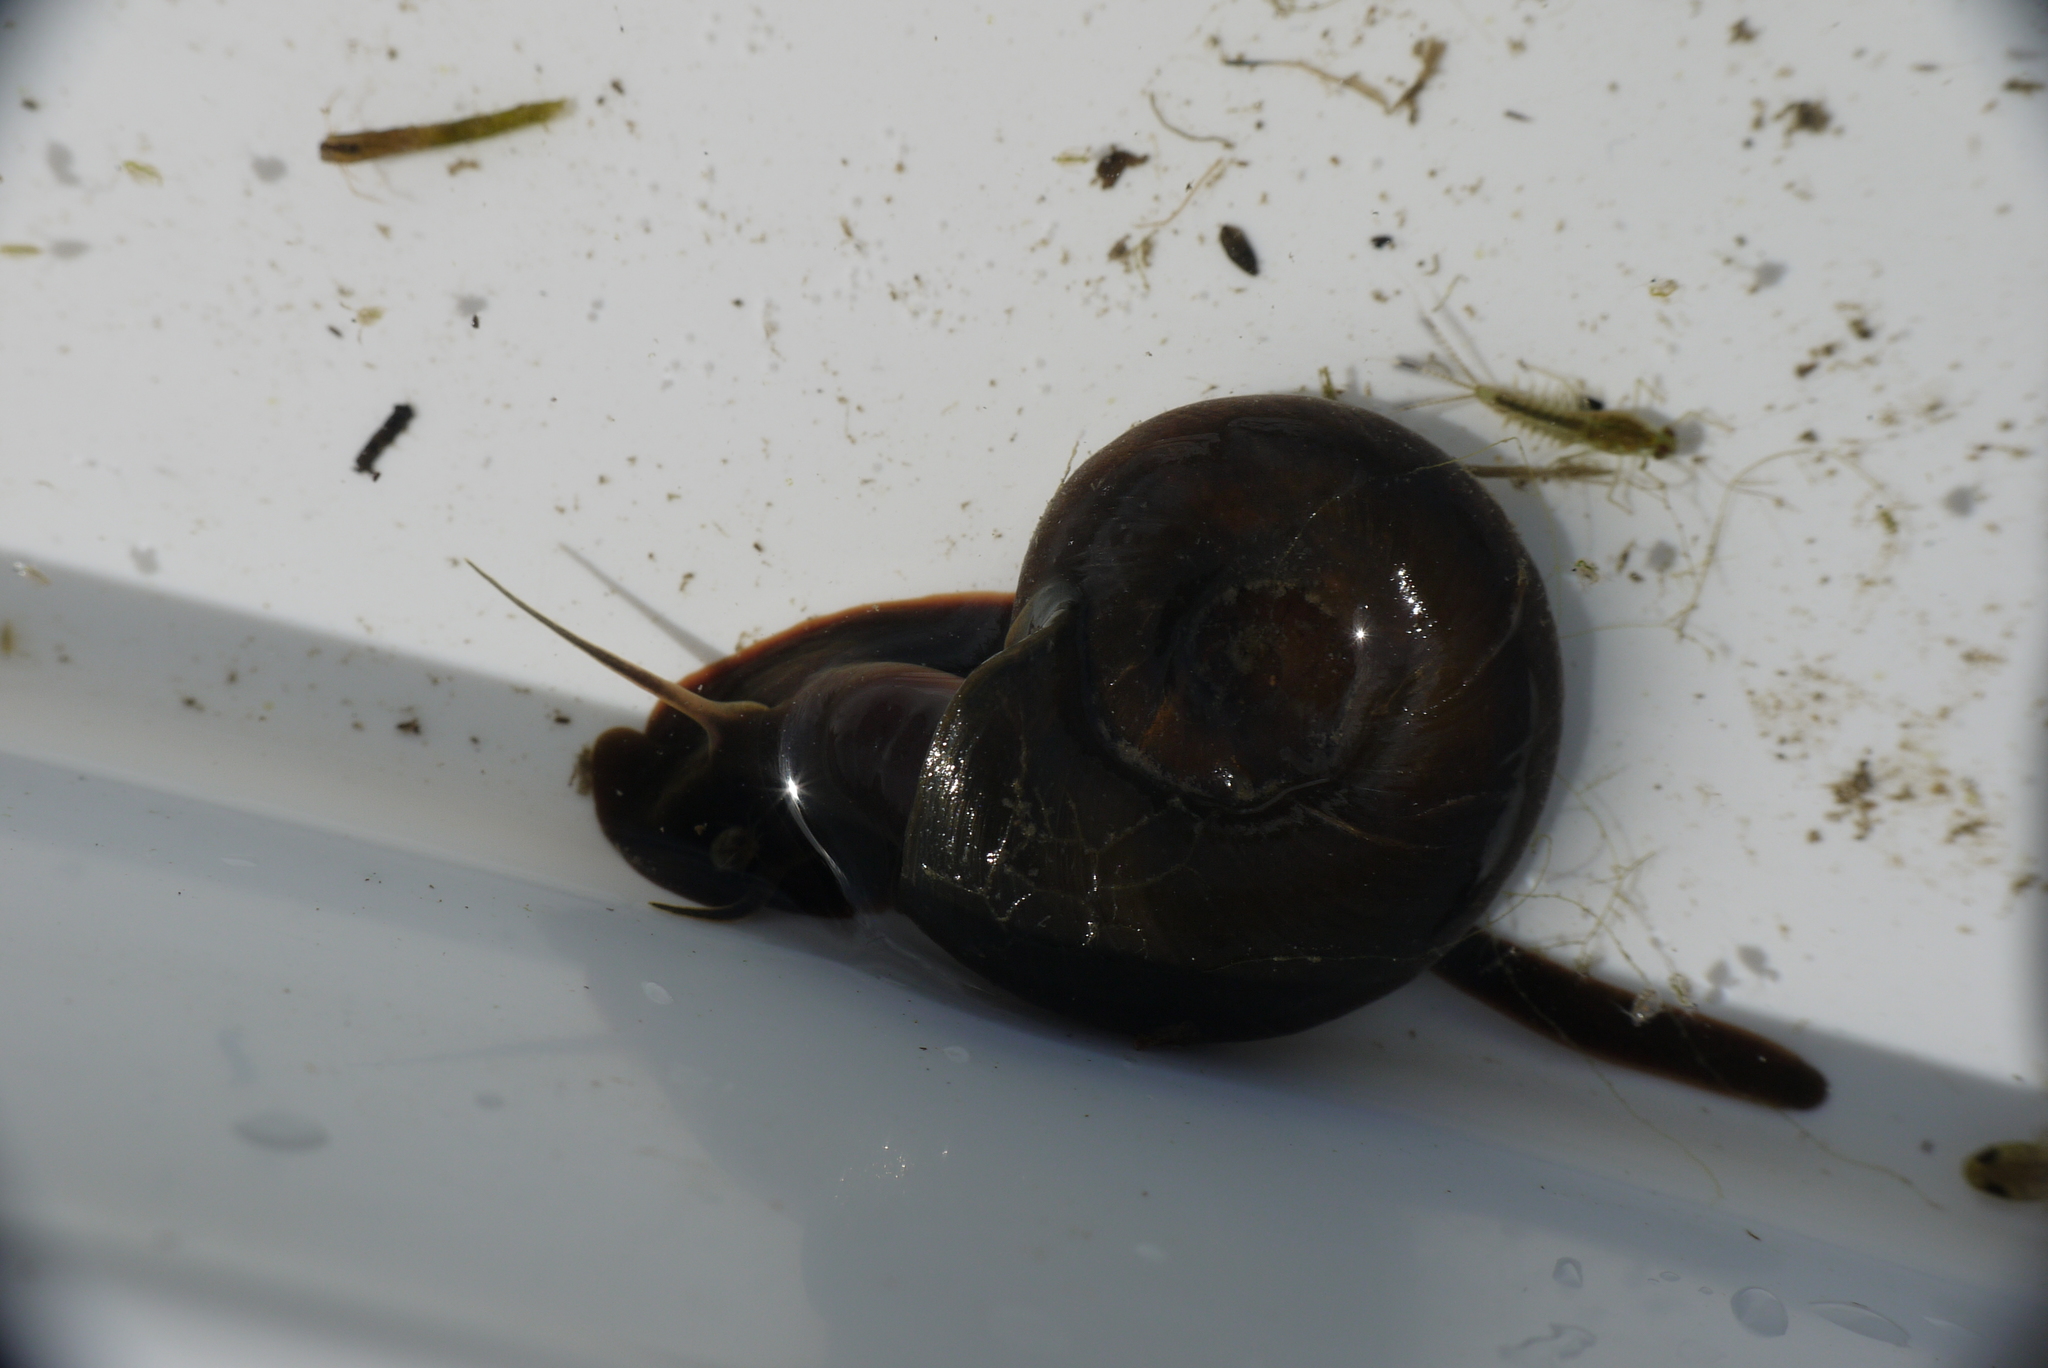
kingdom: Animalia
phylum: Mollusca
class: Gastropoda
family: Planorbidae
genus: Planorbarius
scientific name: Planorbarius corneus
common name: Great ramshorn
